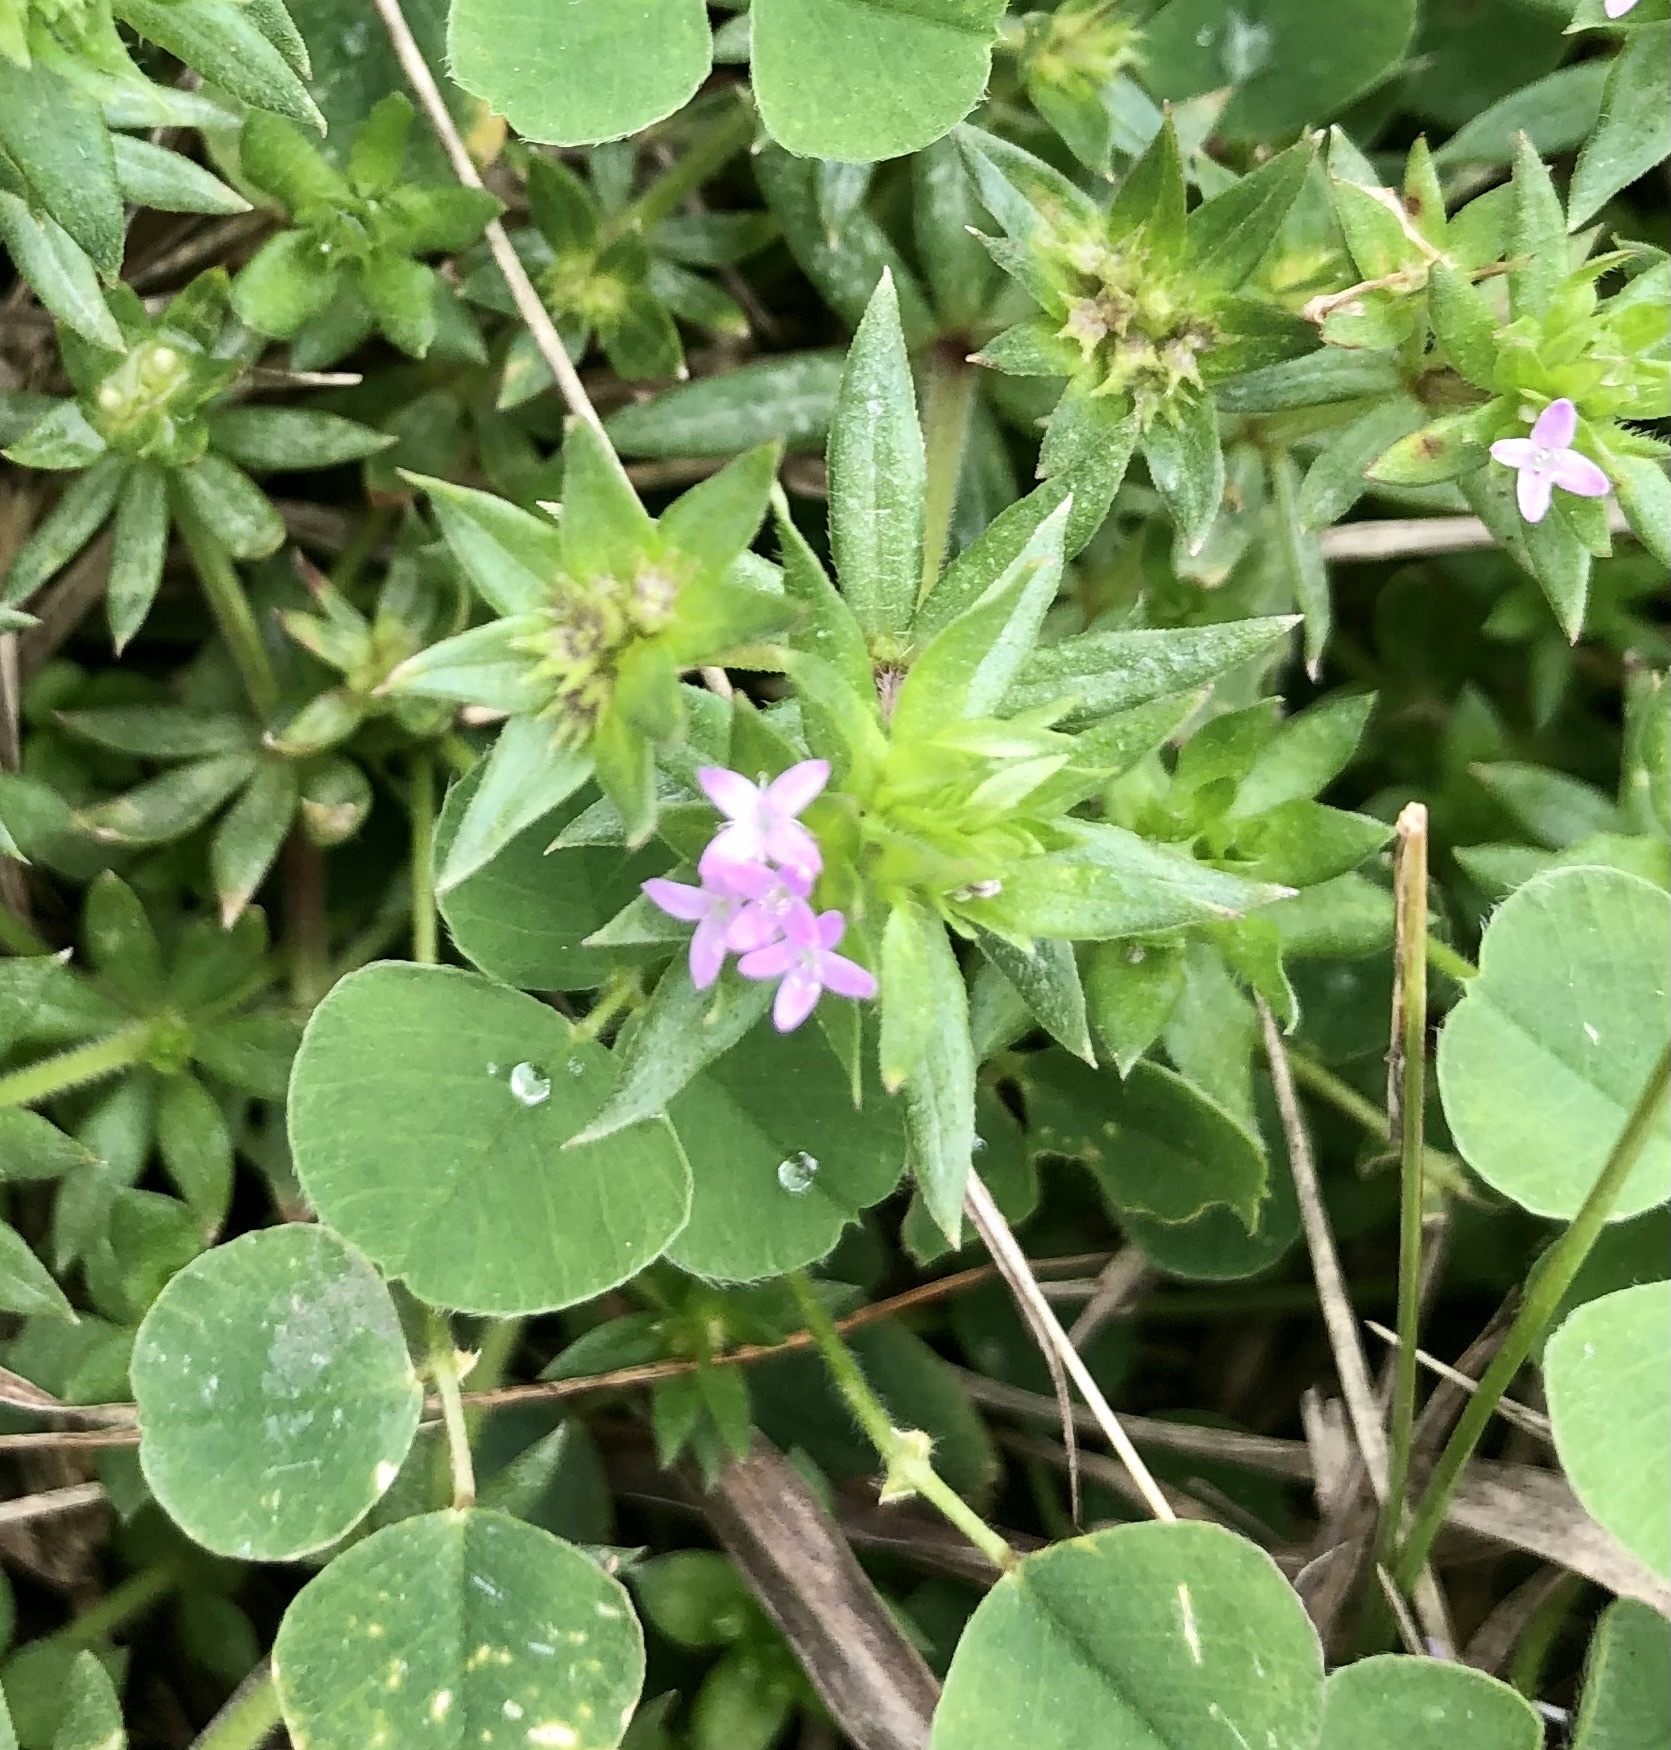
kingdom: Plantae
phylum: Tracheophyta
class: Magnoliopsida
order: Gentianales
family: Rubiaceae
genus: Sherardia
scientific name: Sherardia arvensis
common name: Field madder
